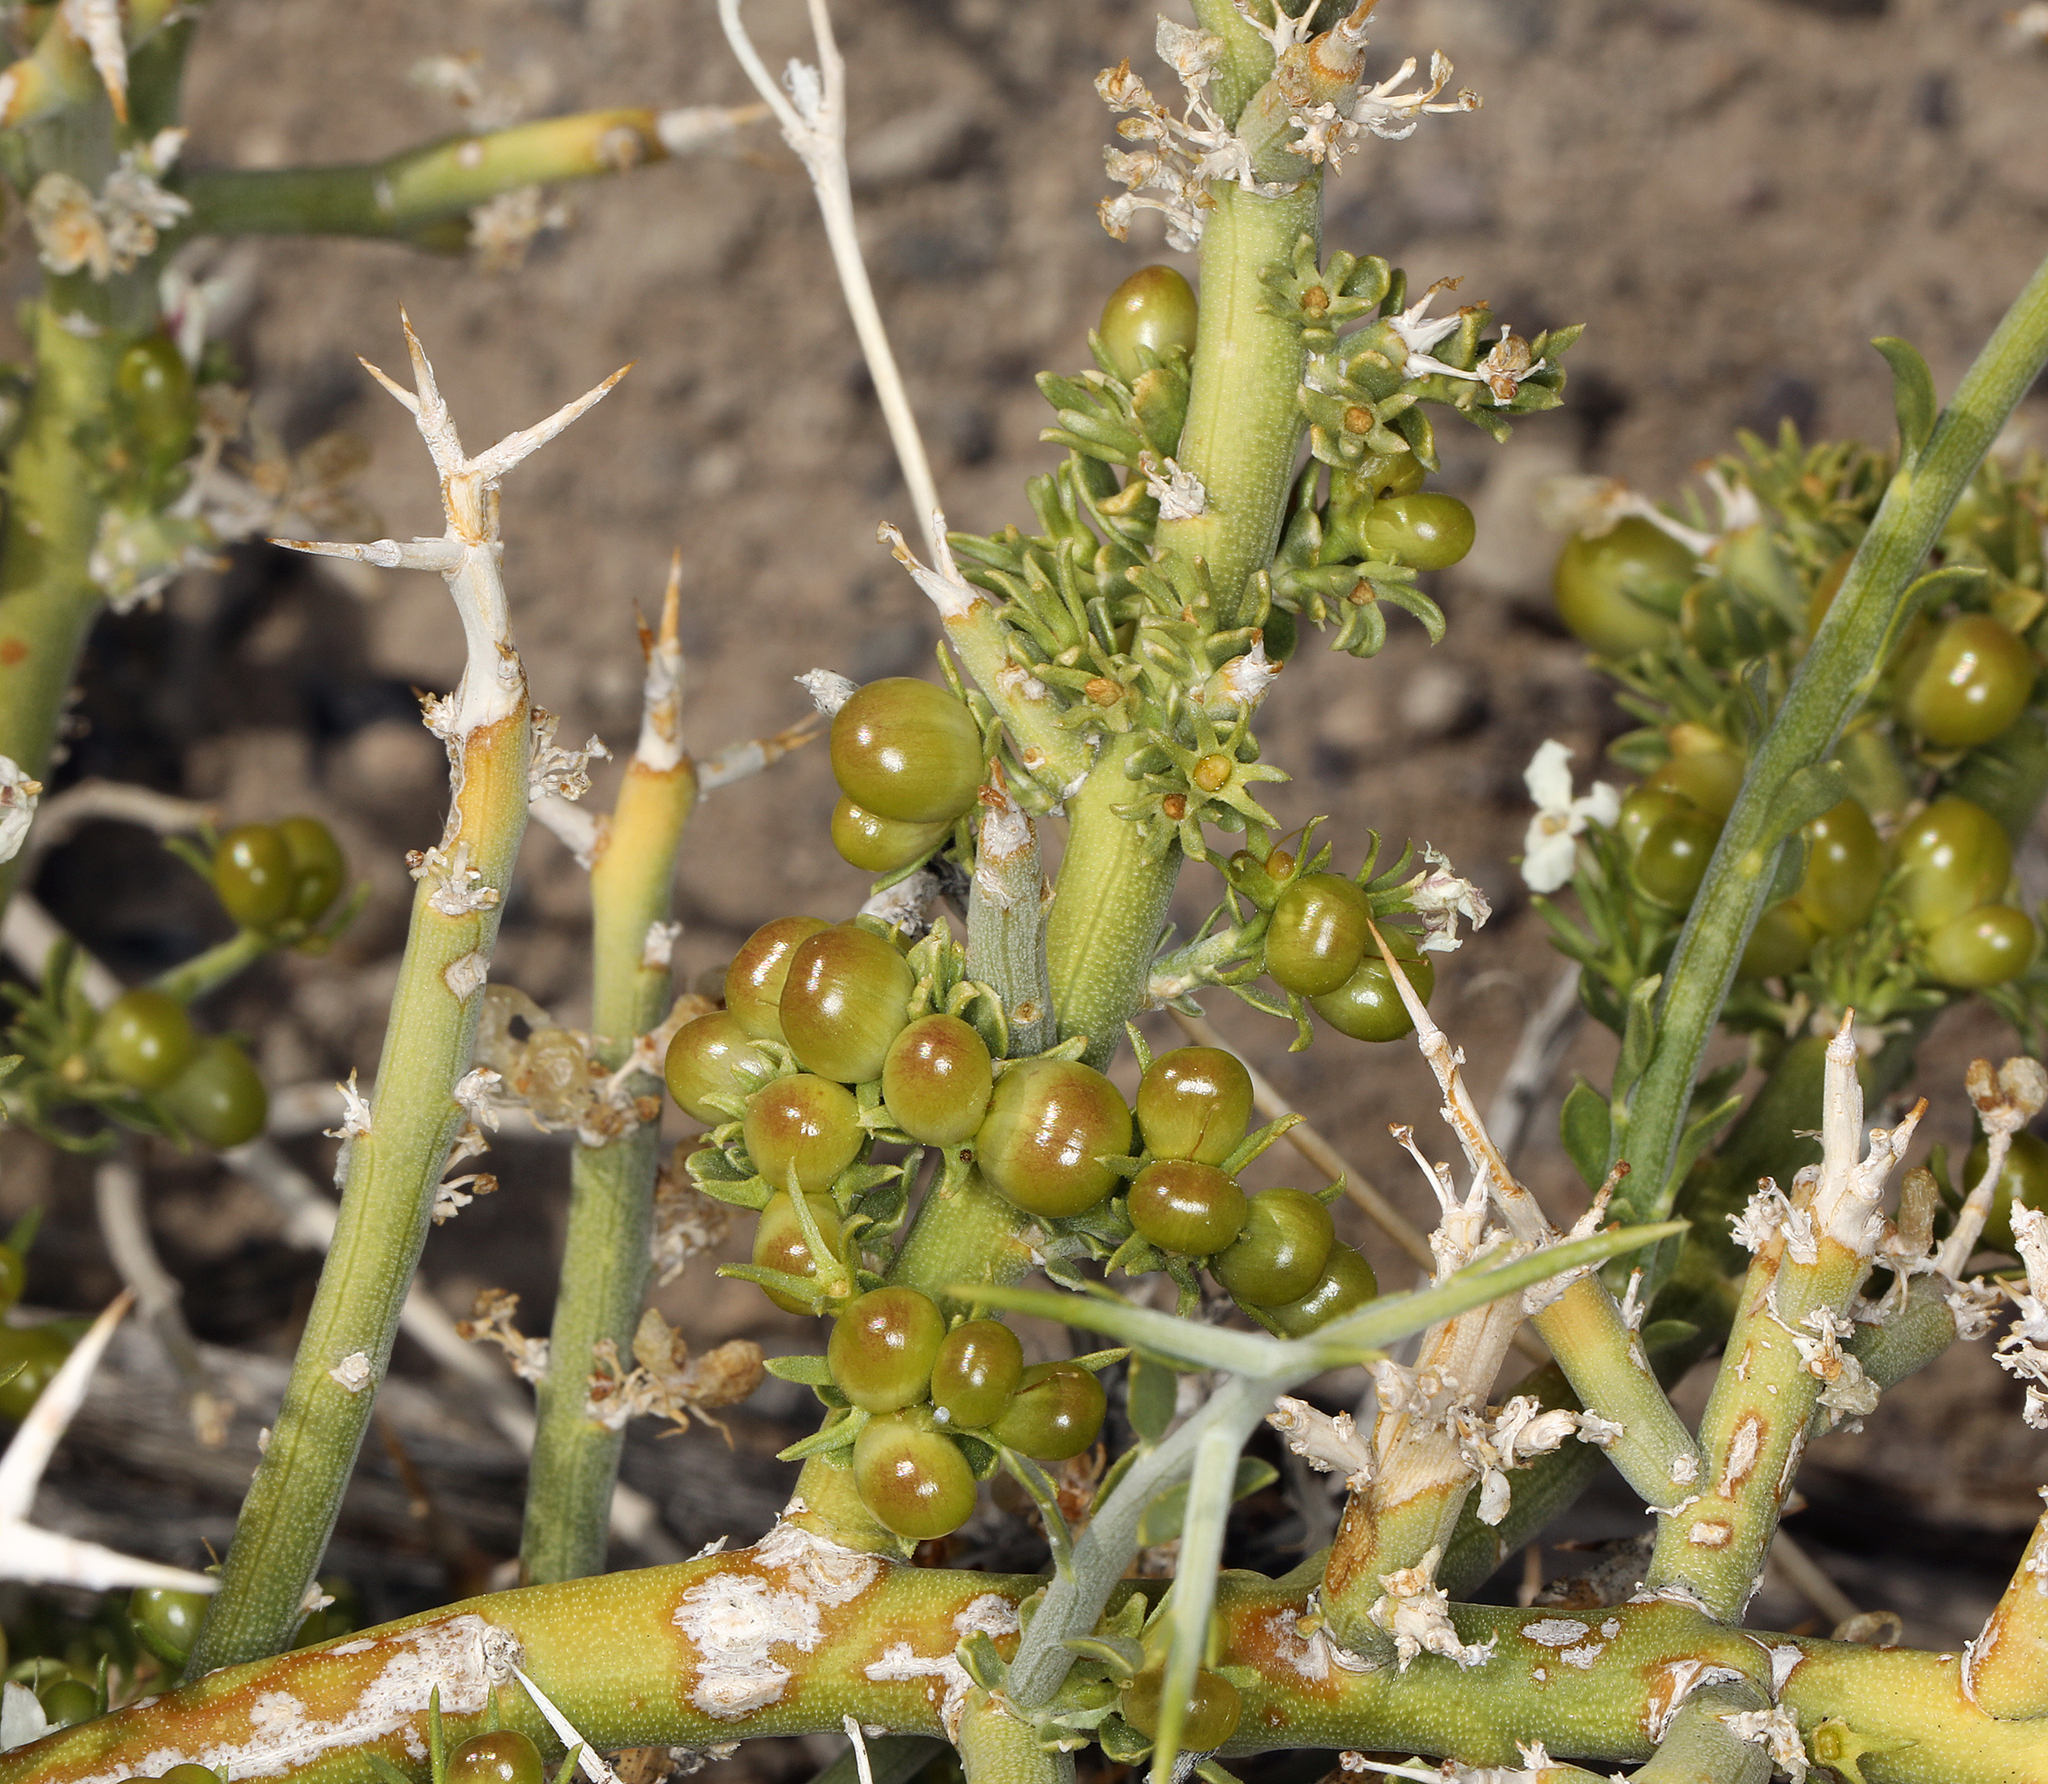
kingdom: Plantae
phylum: Tracheophyta
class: Magnoliopsida
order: Lamiales
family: Oleaceae
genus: Menodora
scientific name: Menodora spinescens
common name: Spiny menodora
